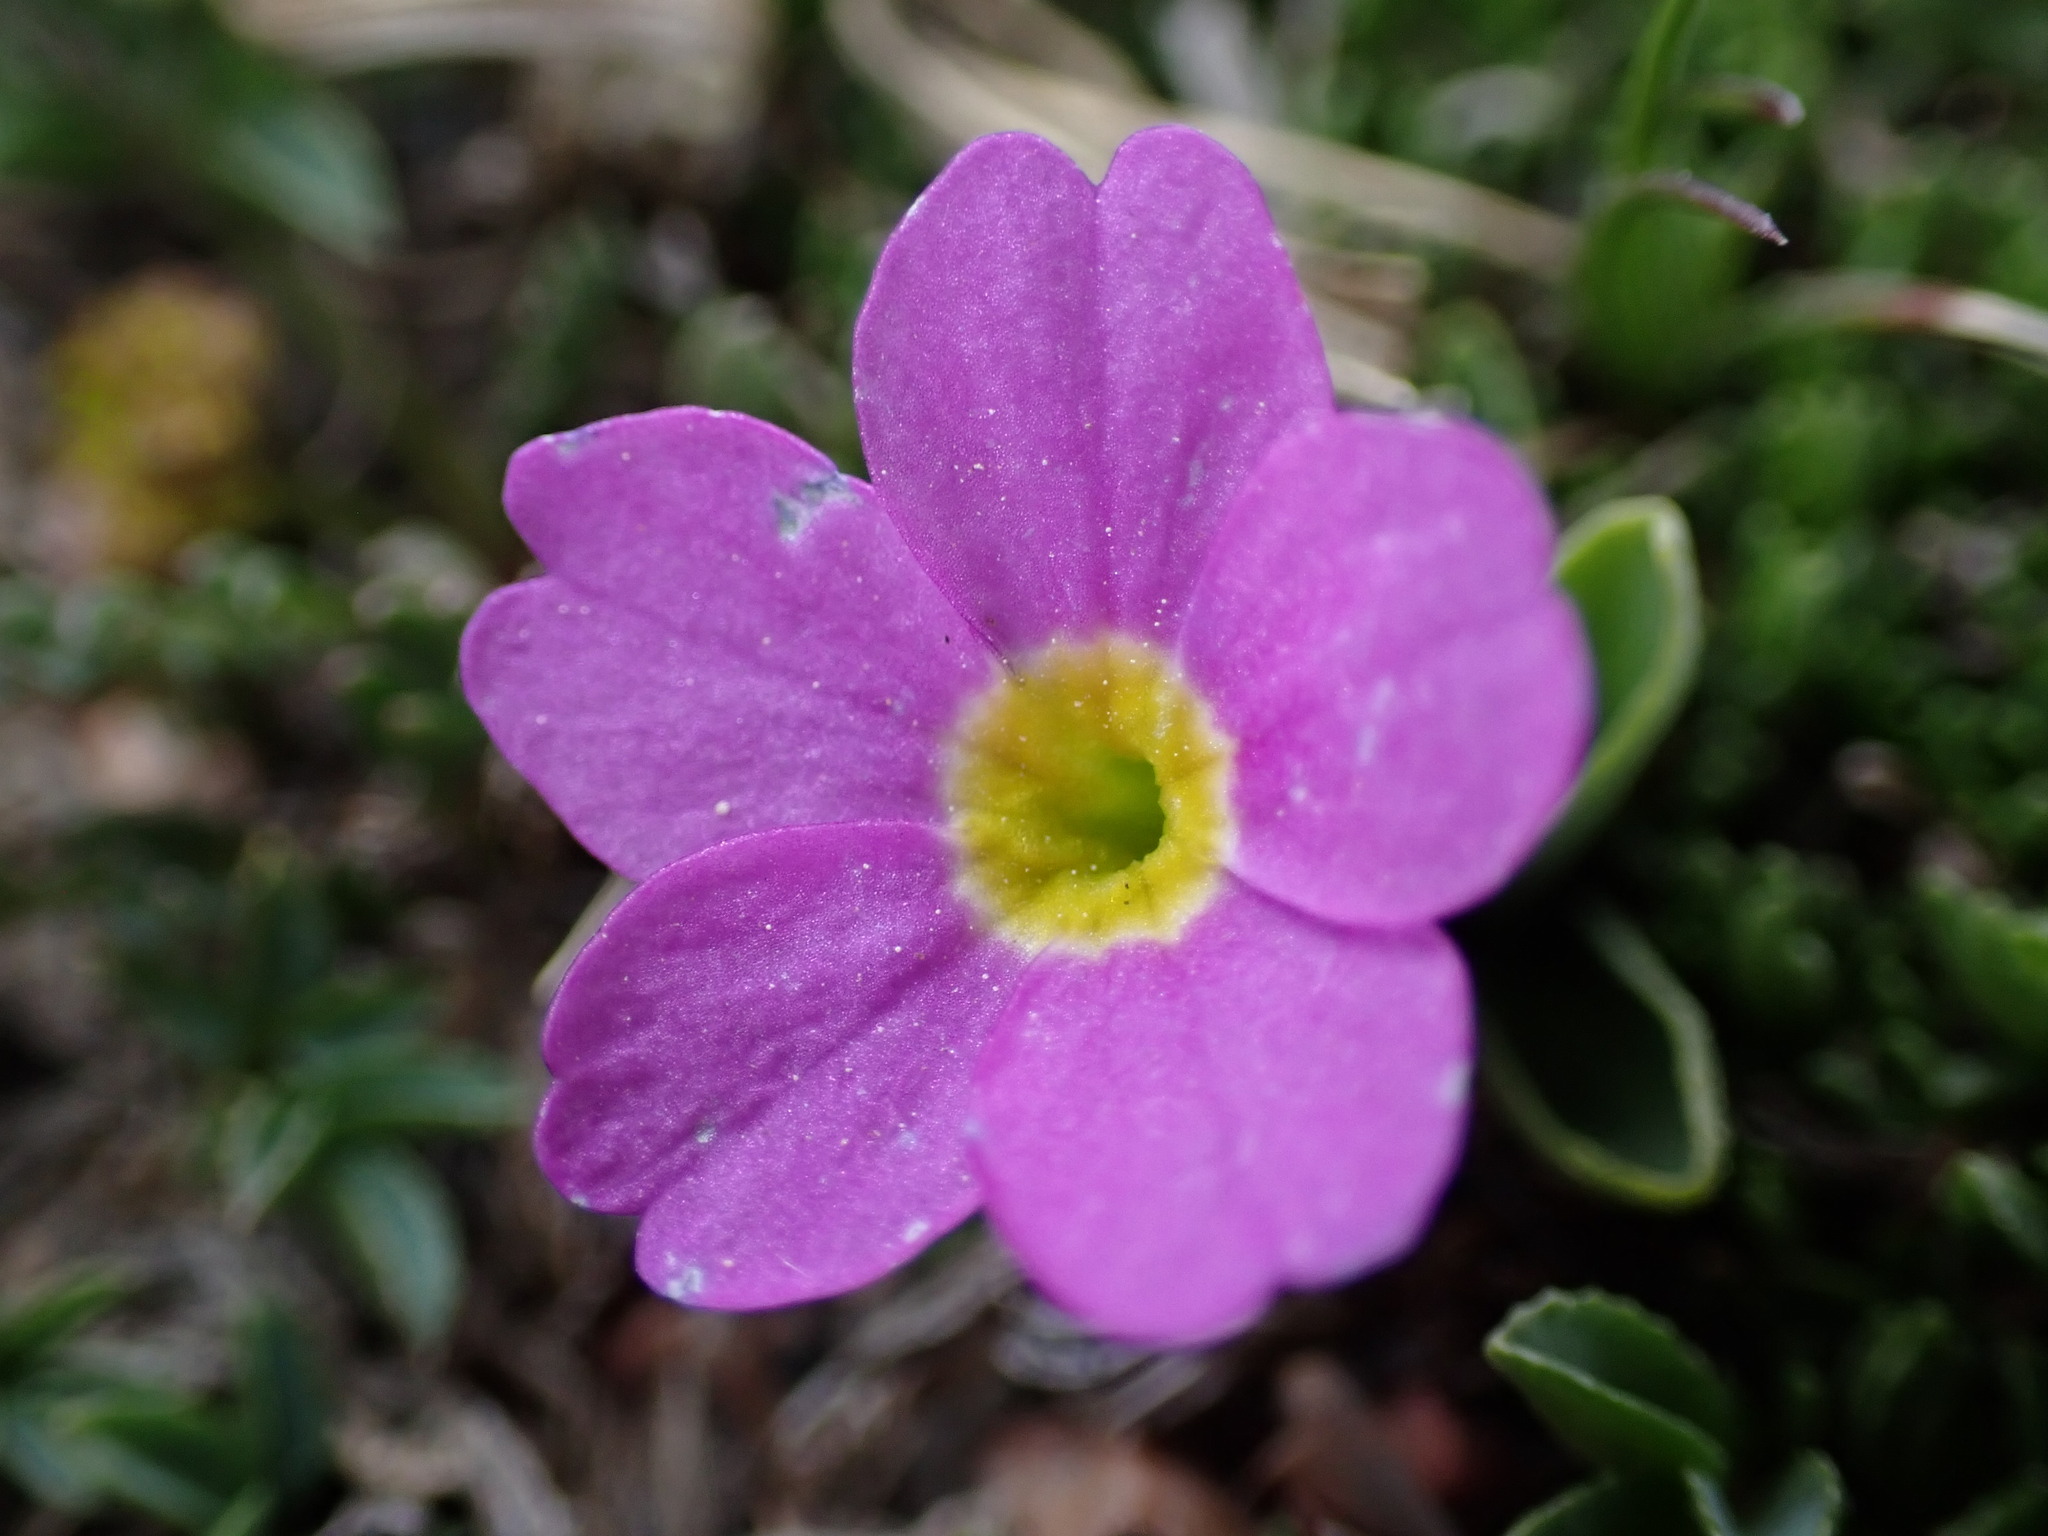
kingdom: Plantae
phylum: Tracheophyta
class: Magnoliopsida
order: Ericales
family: Primulaceae
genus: Primula
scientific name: Primula angustifolia
